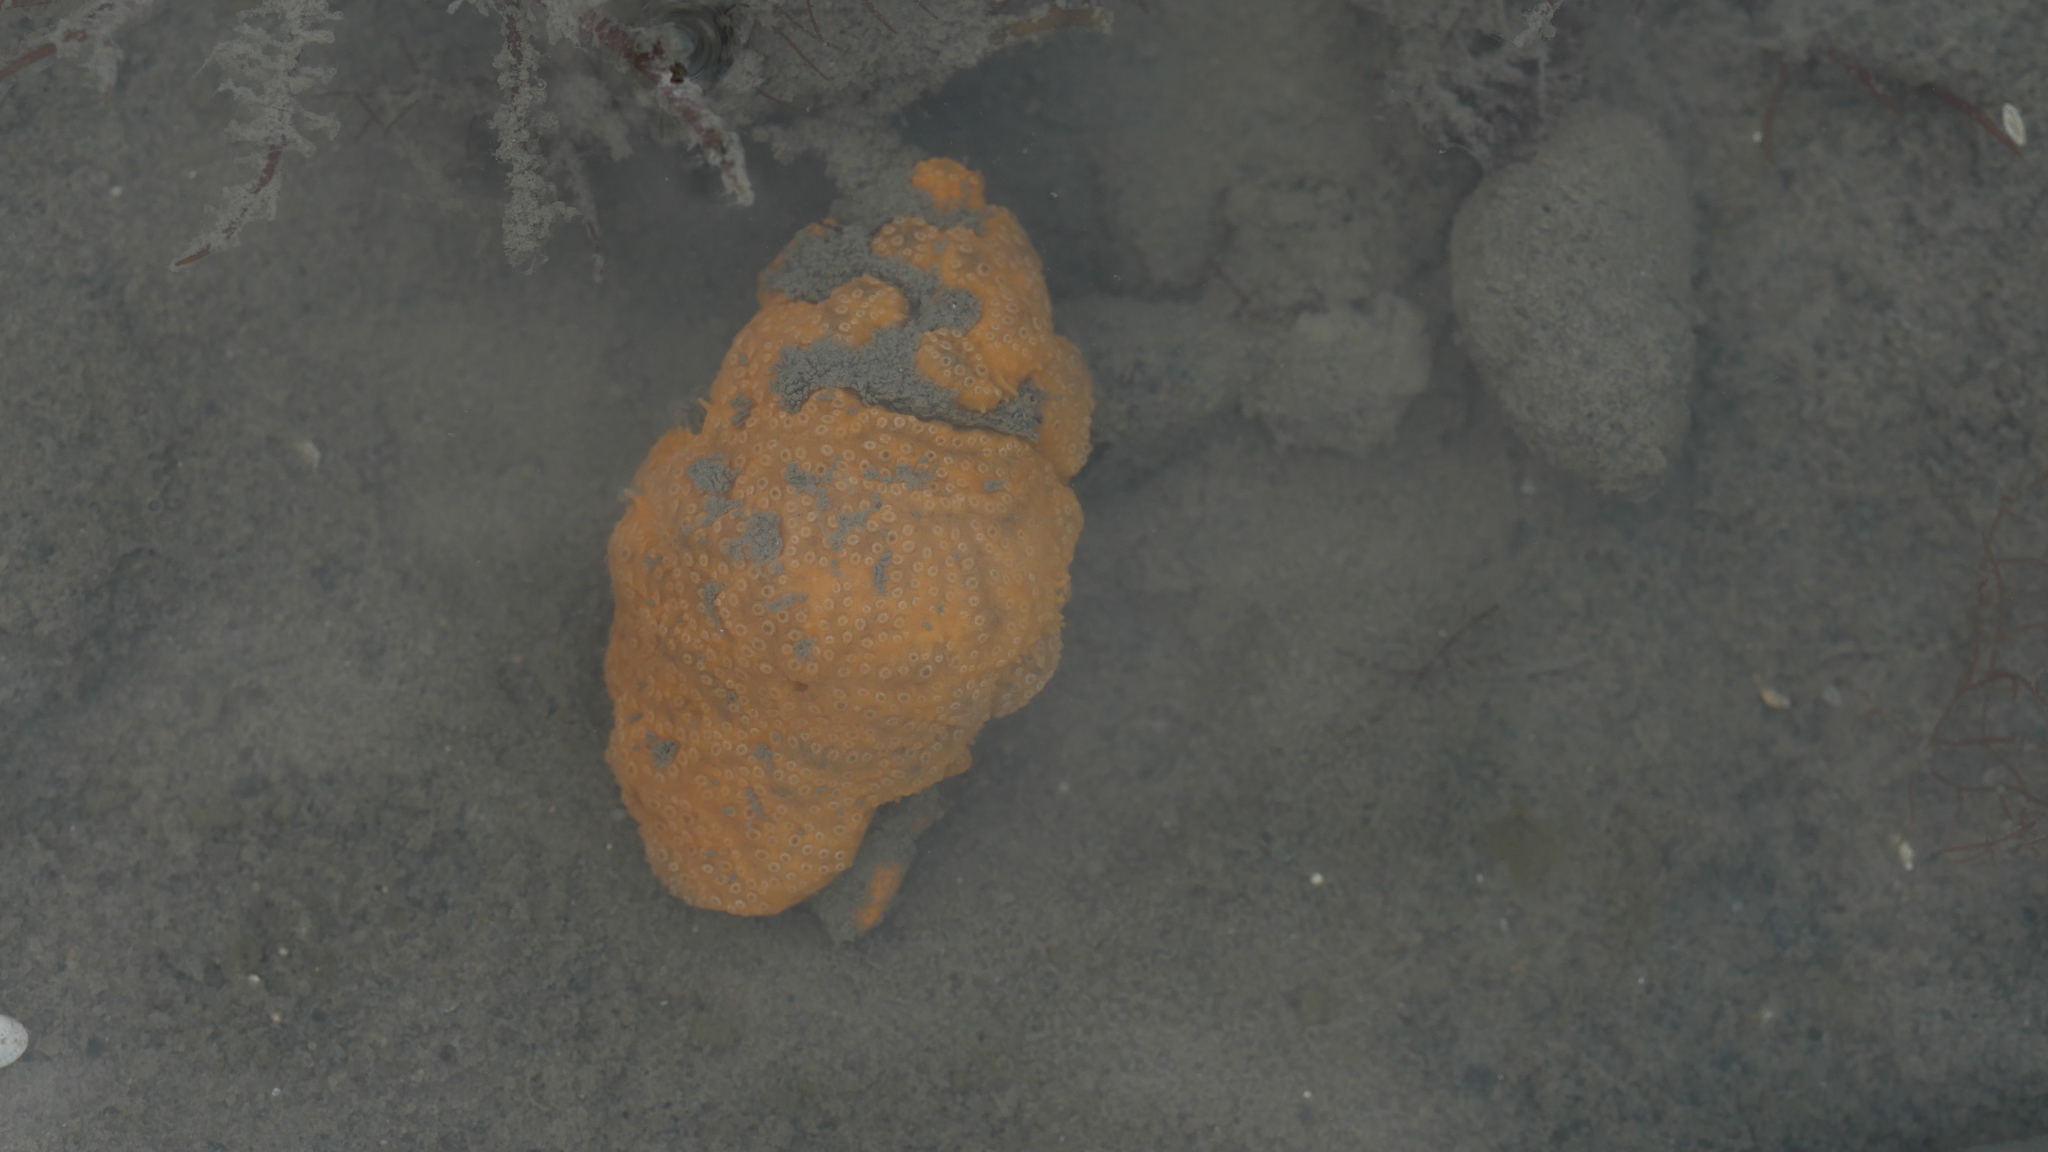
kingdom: Animalia
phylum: Chordata
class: Ascidiacea
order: Aplousobranchia
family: Polyclinidae
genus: Aplidium
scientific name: Aplidium stellatum
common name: Atlantic sea pork
